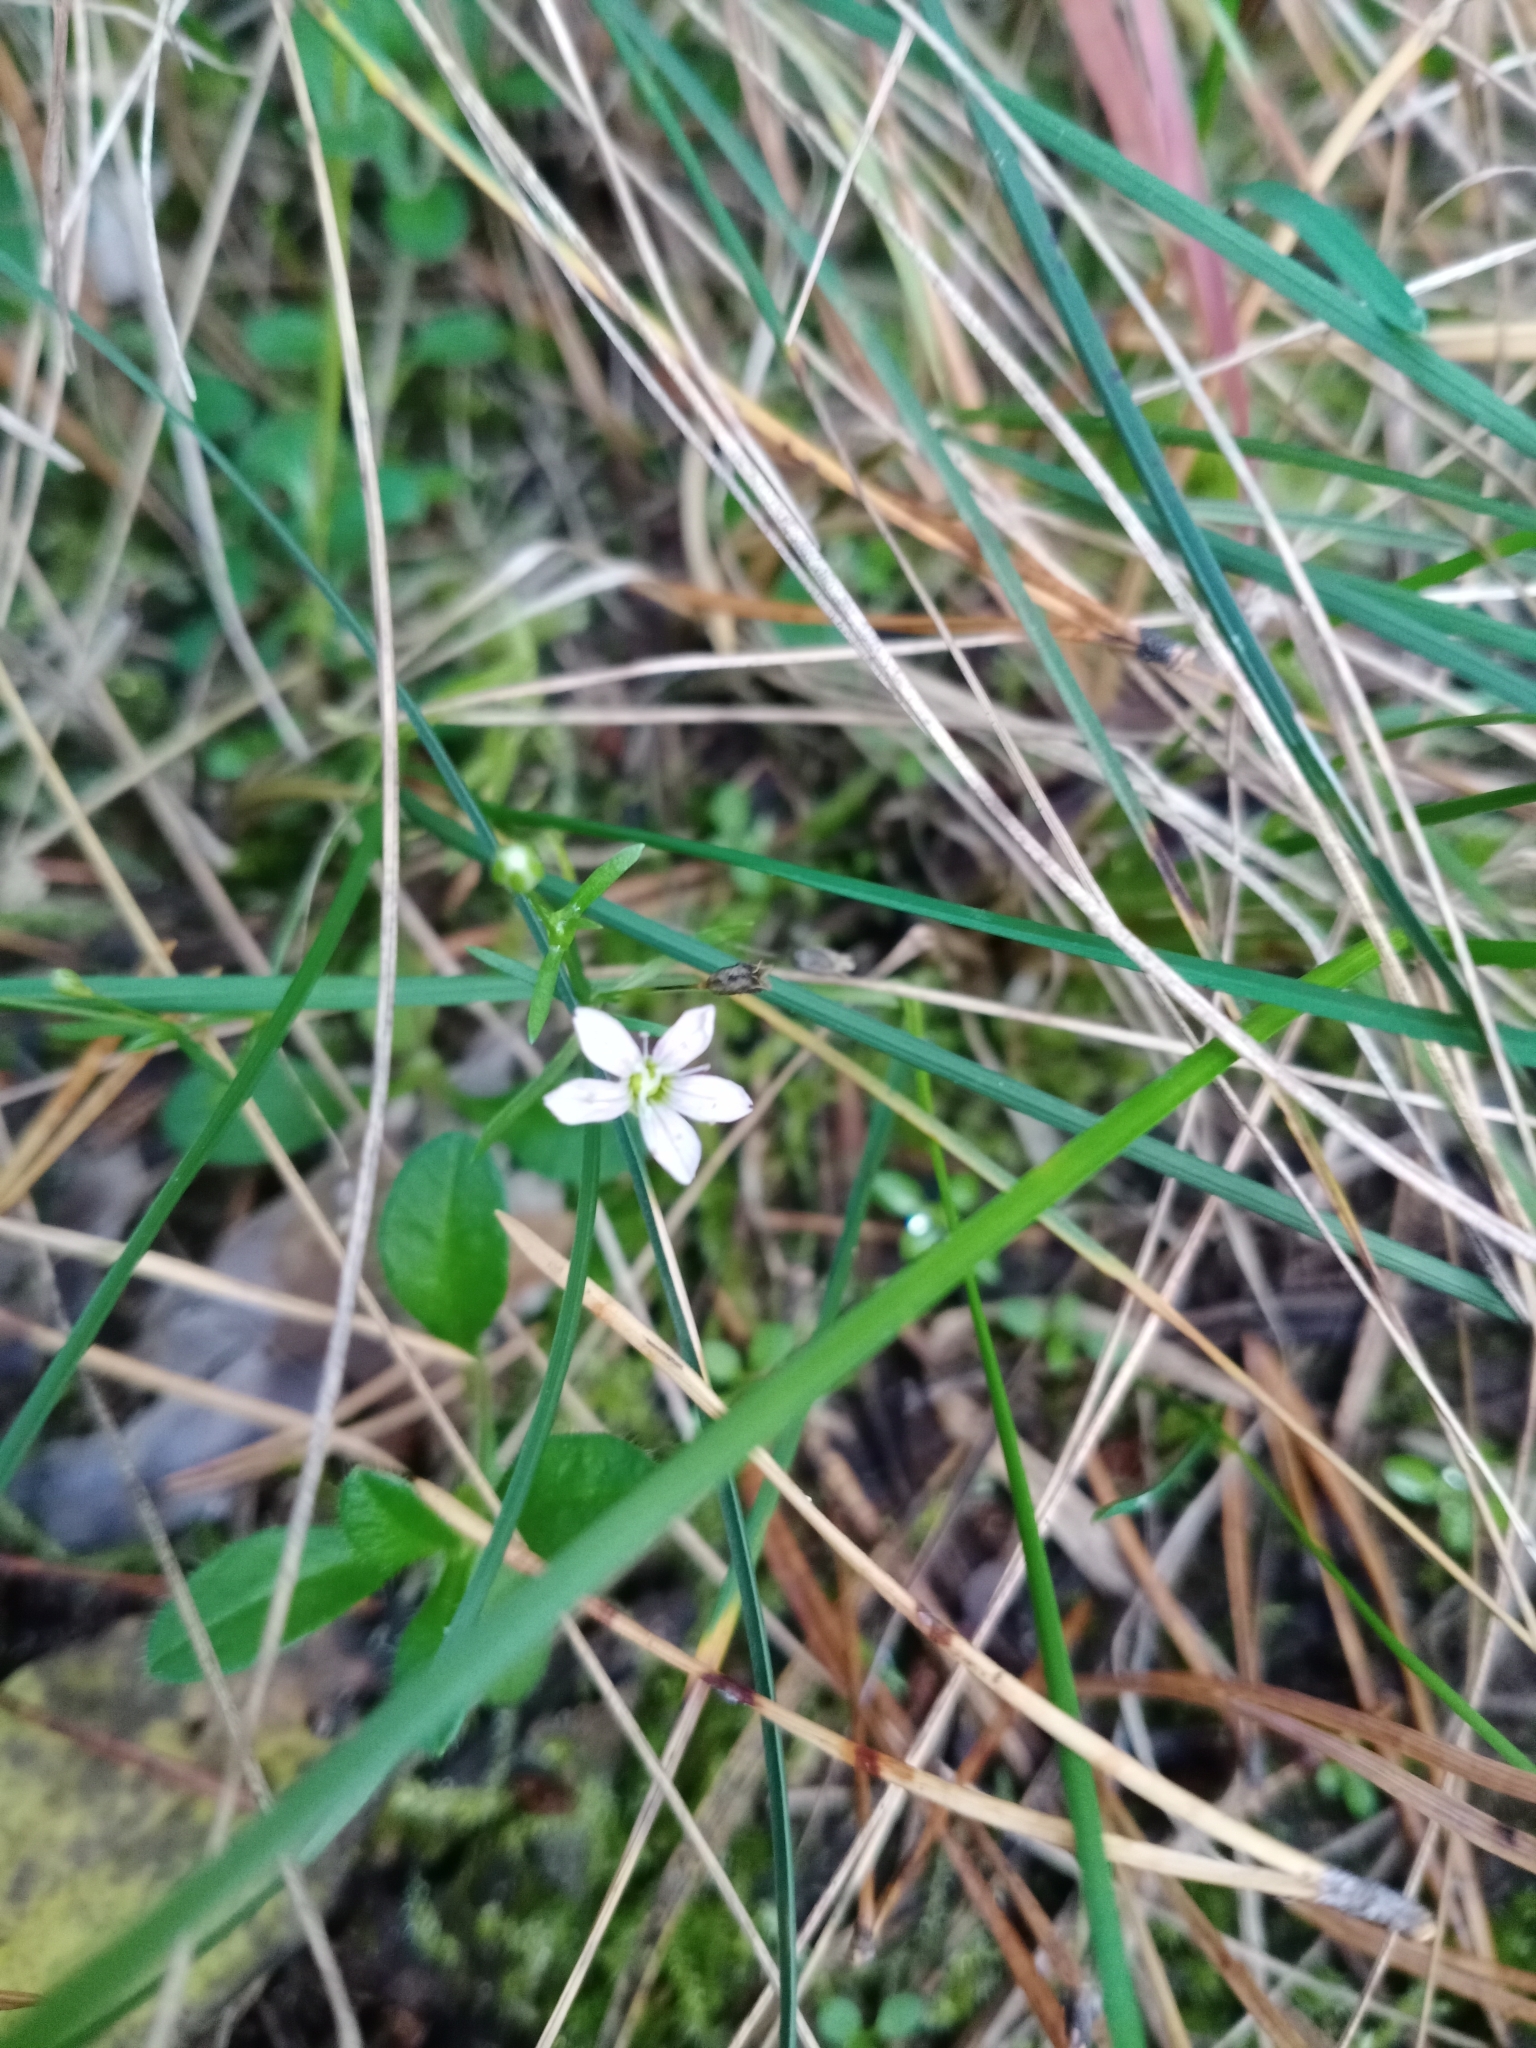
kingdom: Plantae
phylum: Tracheophyta
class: Magnoliopsida
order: Caryophyllales
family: Caryophyllaceae
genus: Psammophiliella
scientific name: Psammophiliella muralis
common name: Cushion baby's-breath
